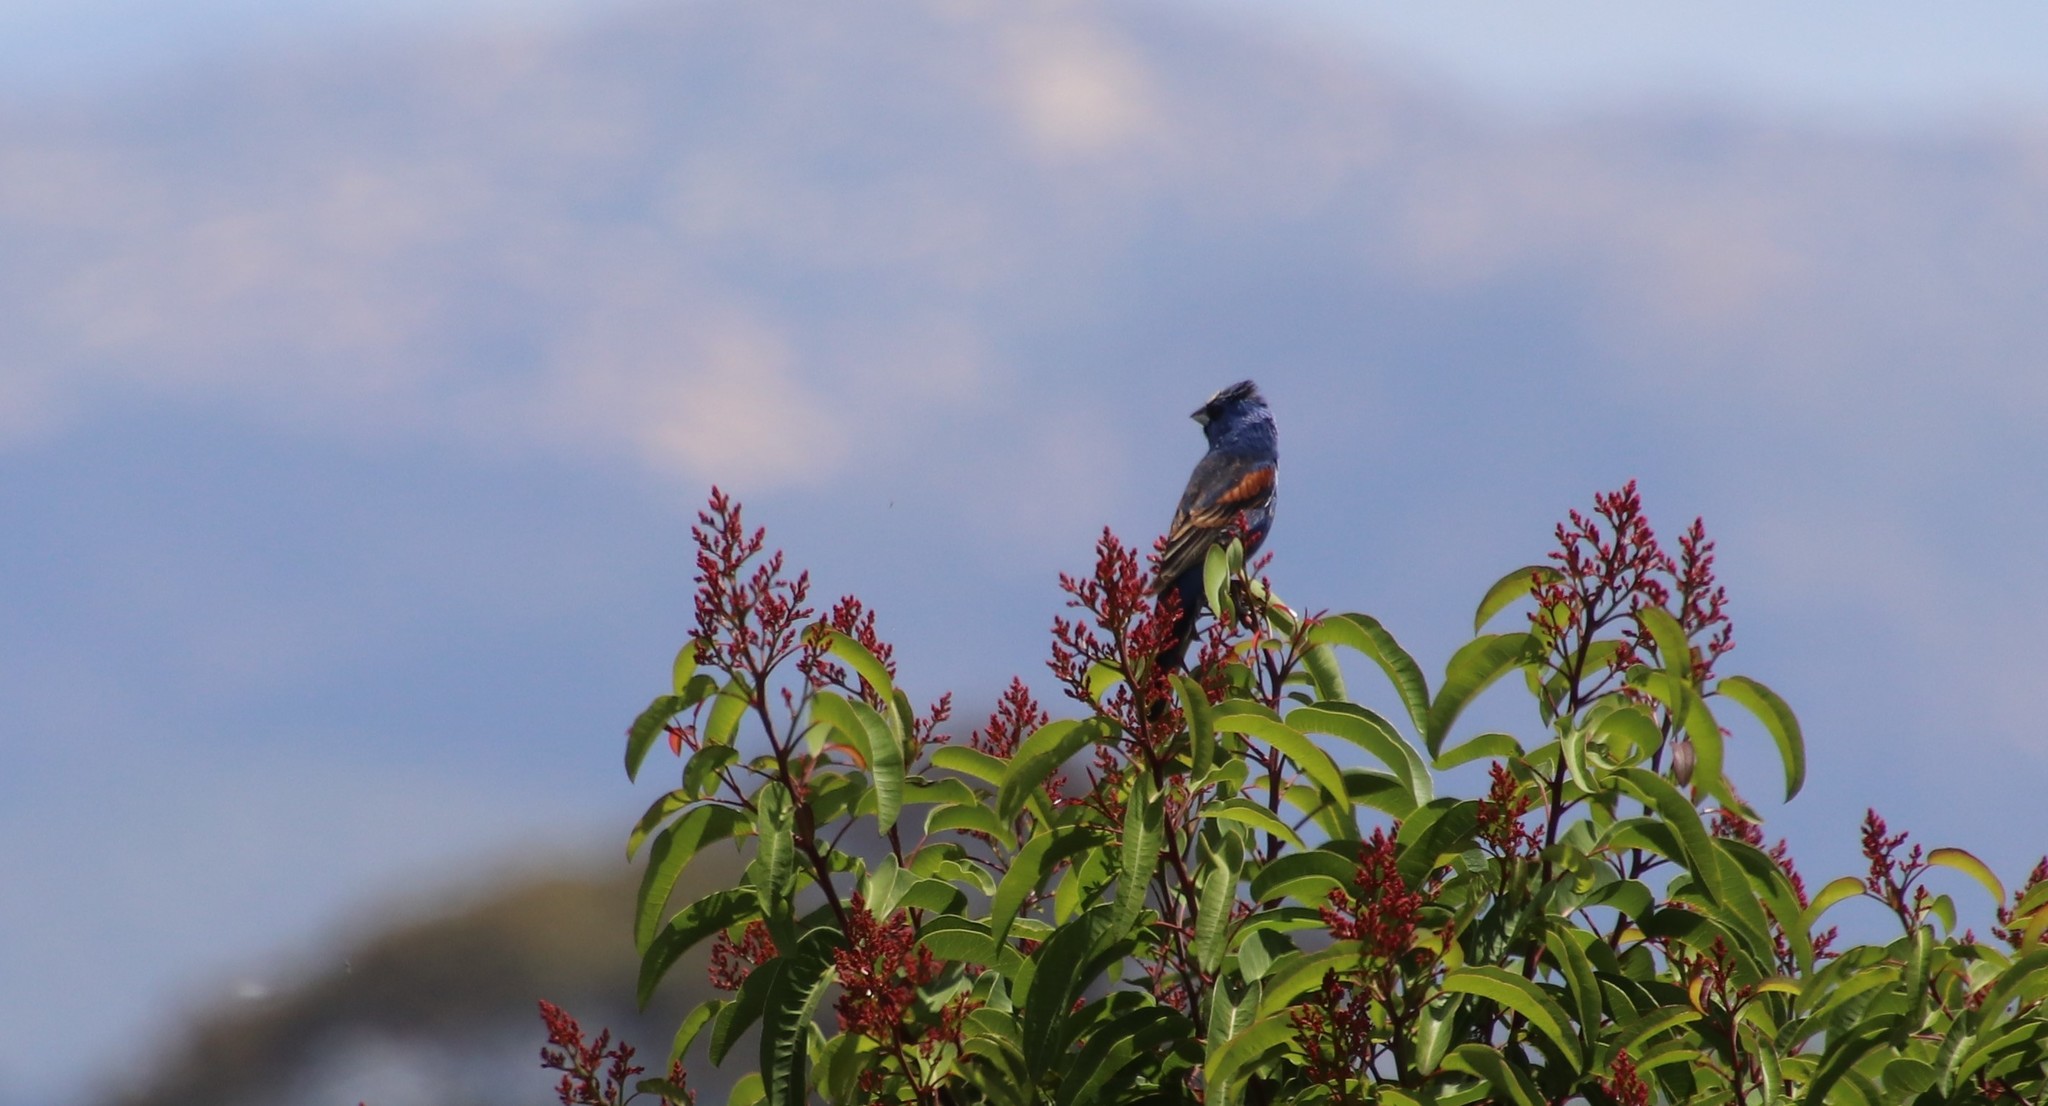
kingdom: Animalia
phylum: Chordata
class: Aves
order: Passeriformes
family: Cardinalidae
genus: Passerina
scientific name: Passerina caerulea
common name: Blue grosbeak
